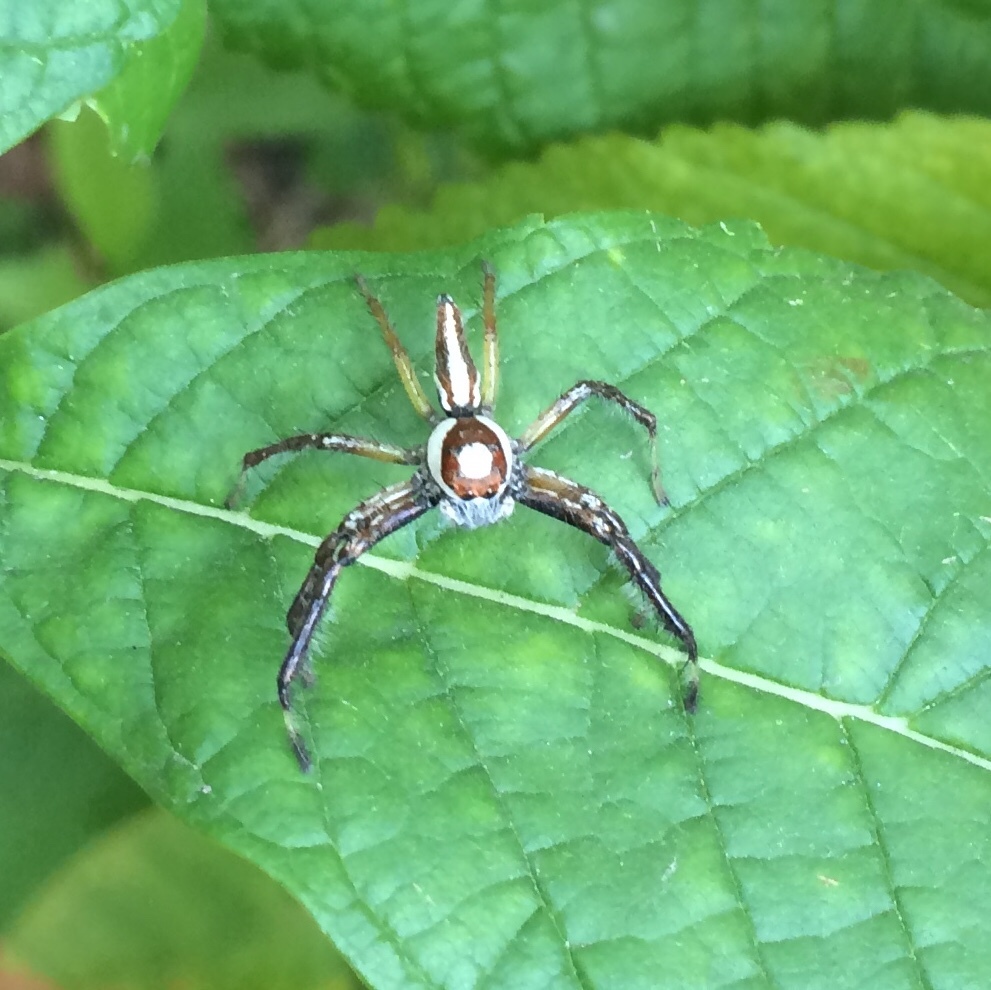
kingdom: Animalia
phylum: Arthropoda
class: Arachnida
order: Araneae
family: Salticidae
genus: Telamonia
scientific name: Telamonia dimidiata
